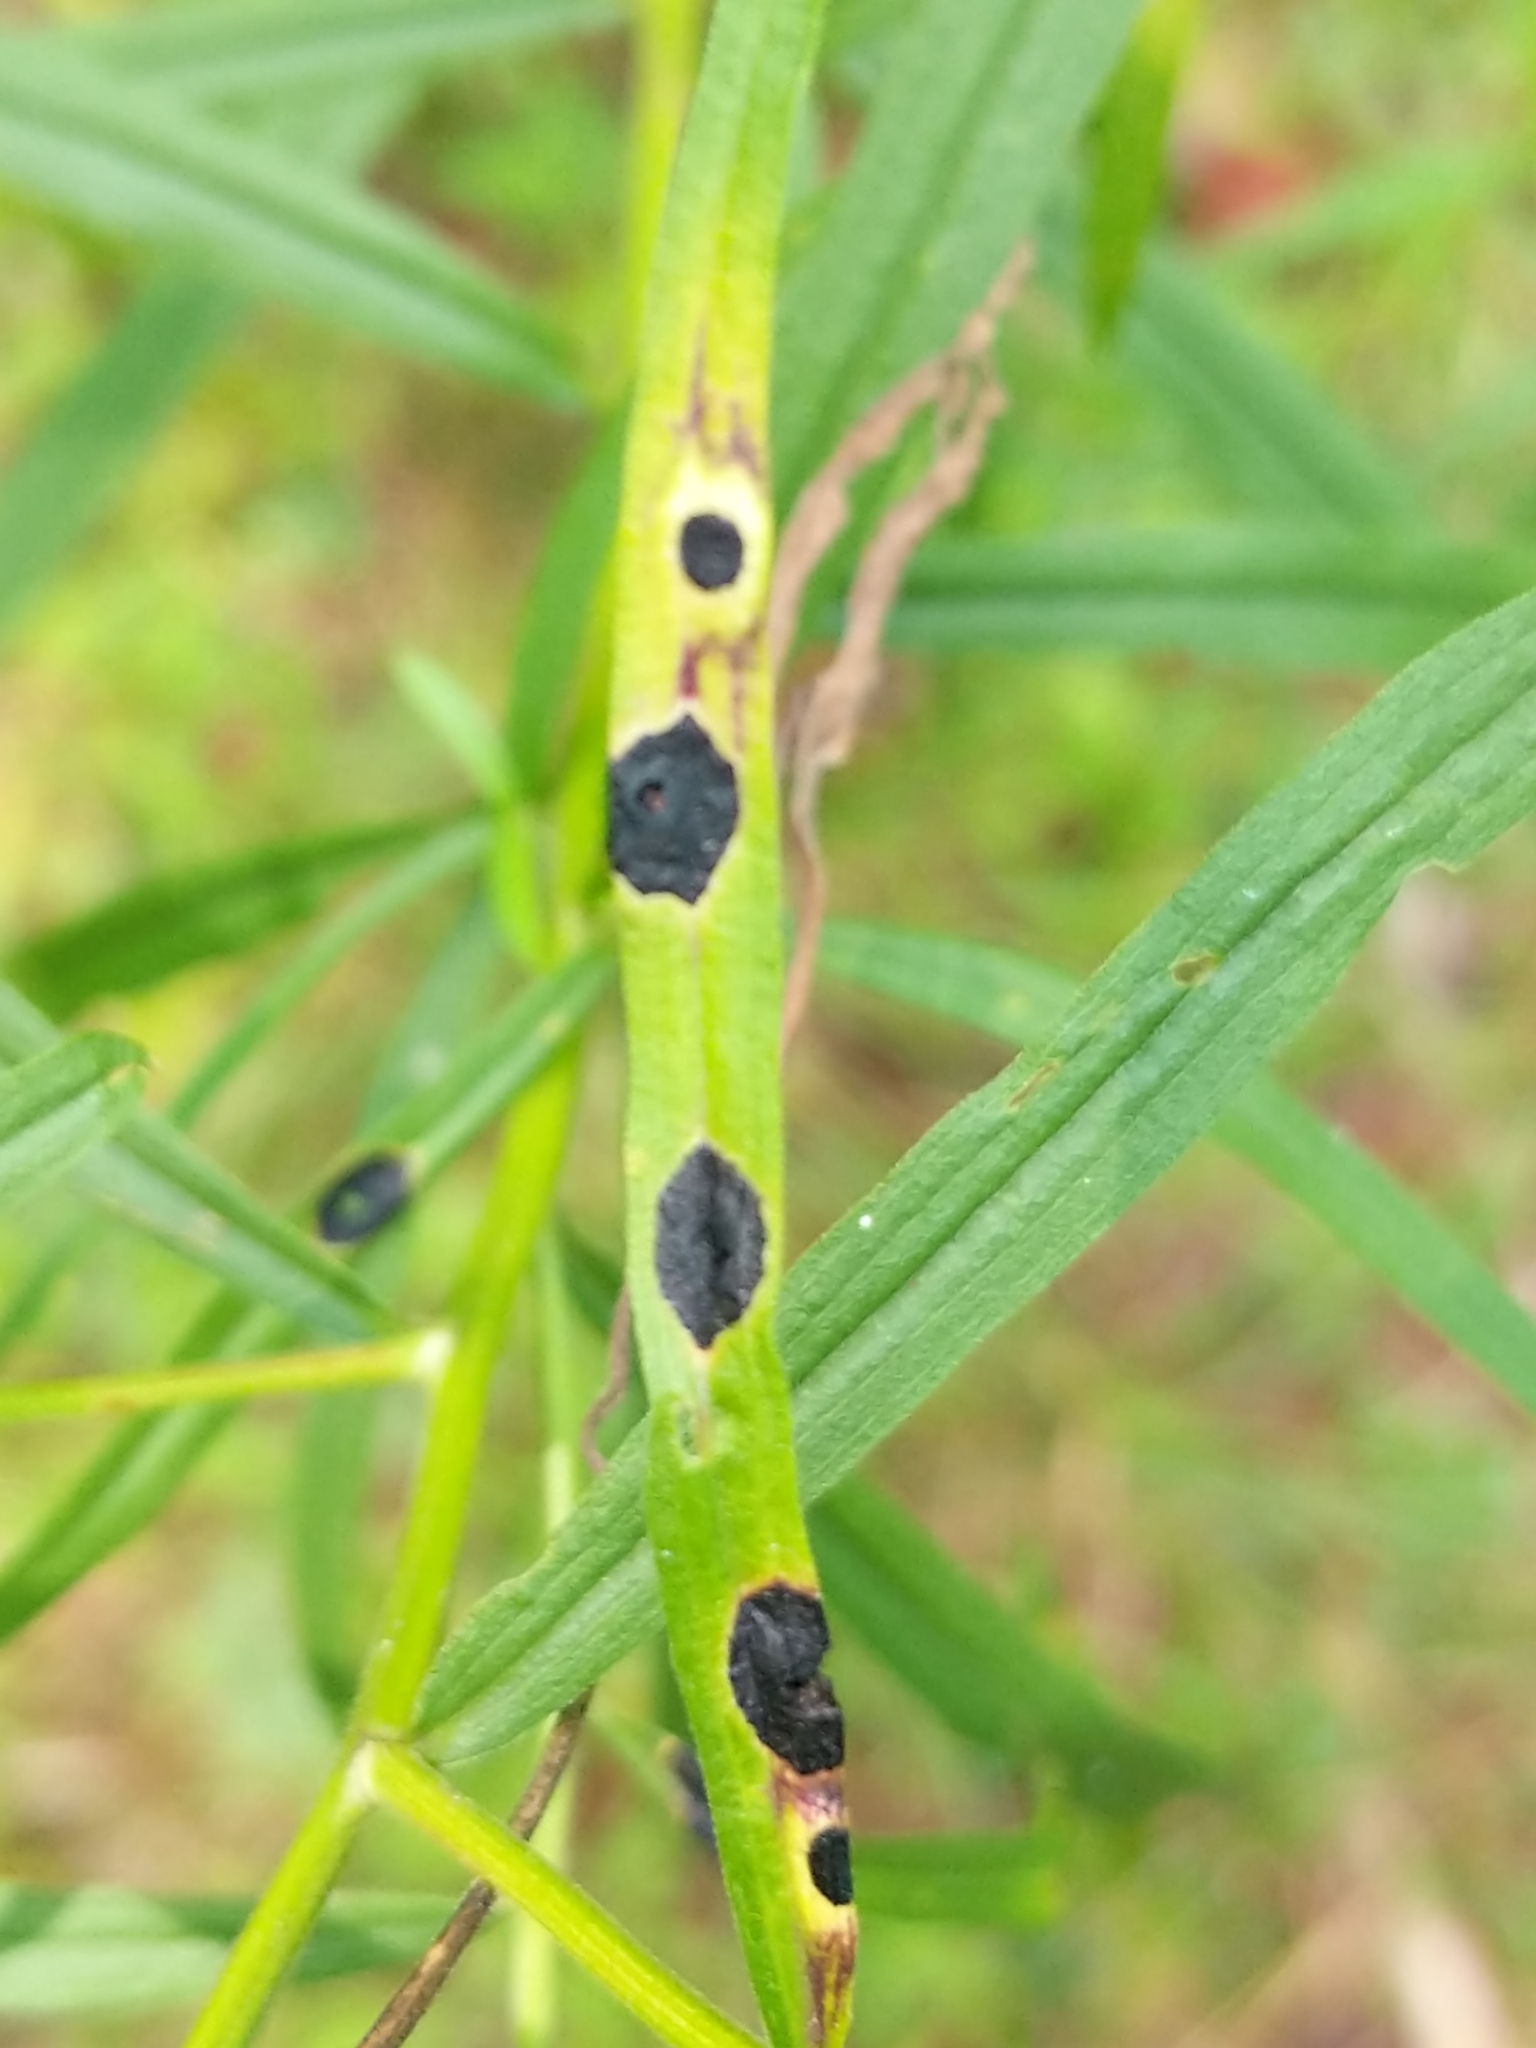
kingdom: Animalia
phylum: Arthropoda
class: Insecta
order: Diptera
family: Cecidomyiidae
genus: Asteromyia
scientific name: Asteromyia euthamiae
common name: Euthamia leaf gall midge
